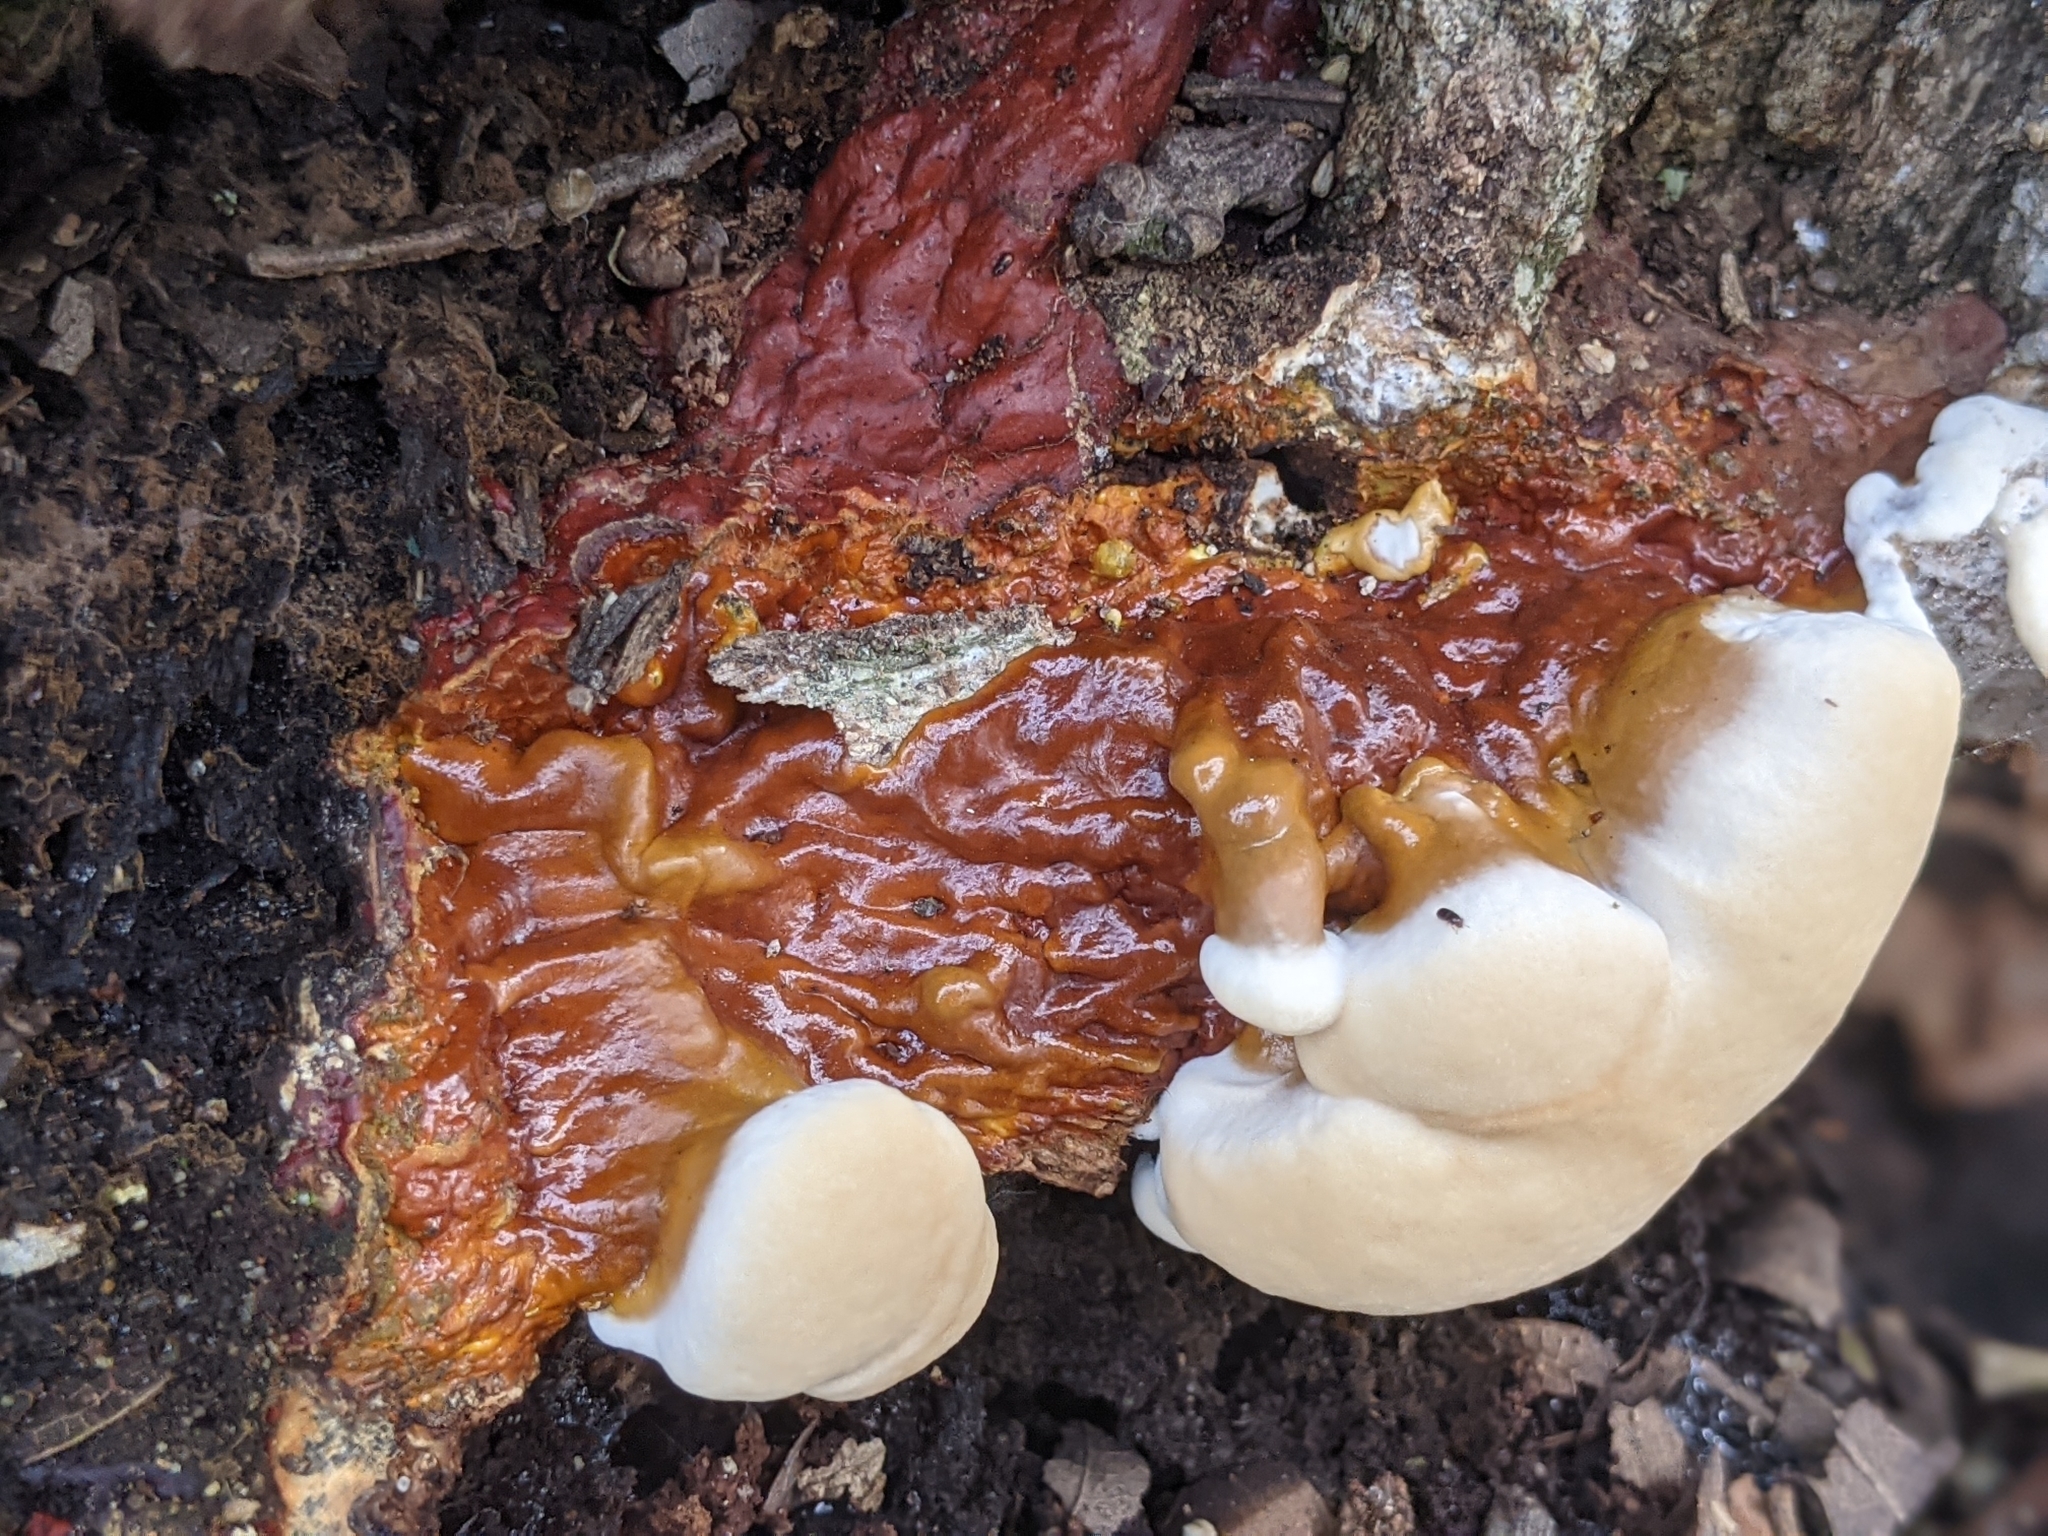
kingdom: Fungi
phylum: Basidiomycota
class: Agaricomycetes
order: Polyporales
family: Polyporaceae
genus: Ganoderma
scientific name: Ganoderma resinaceum
